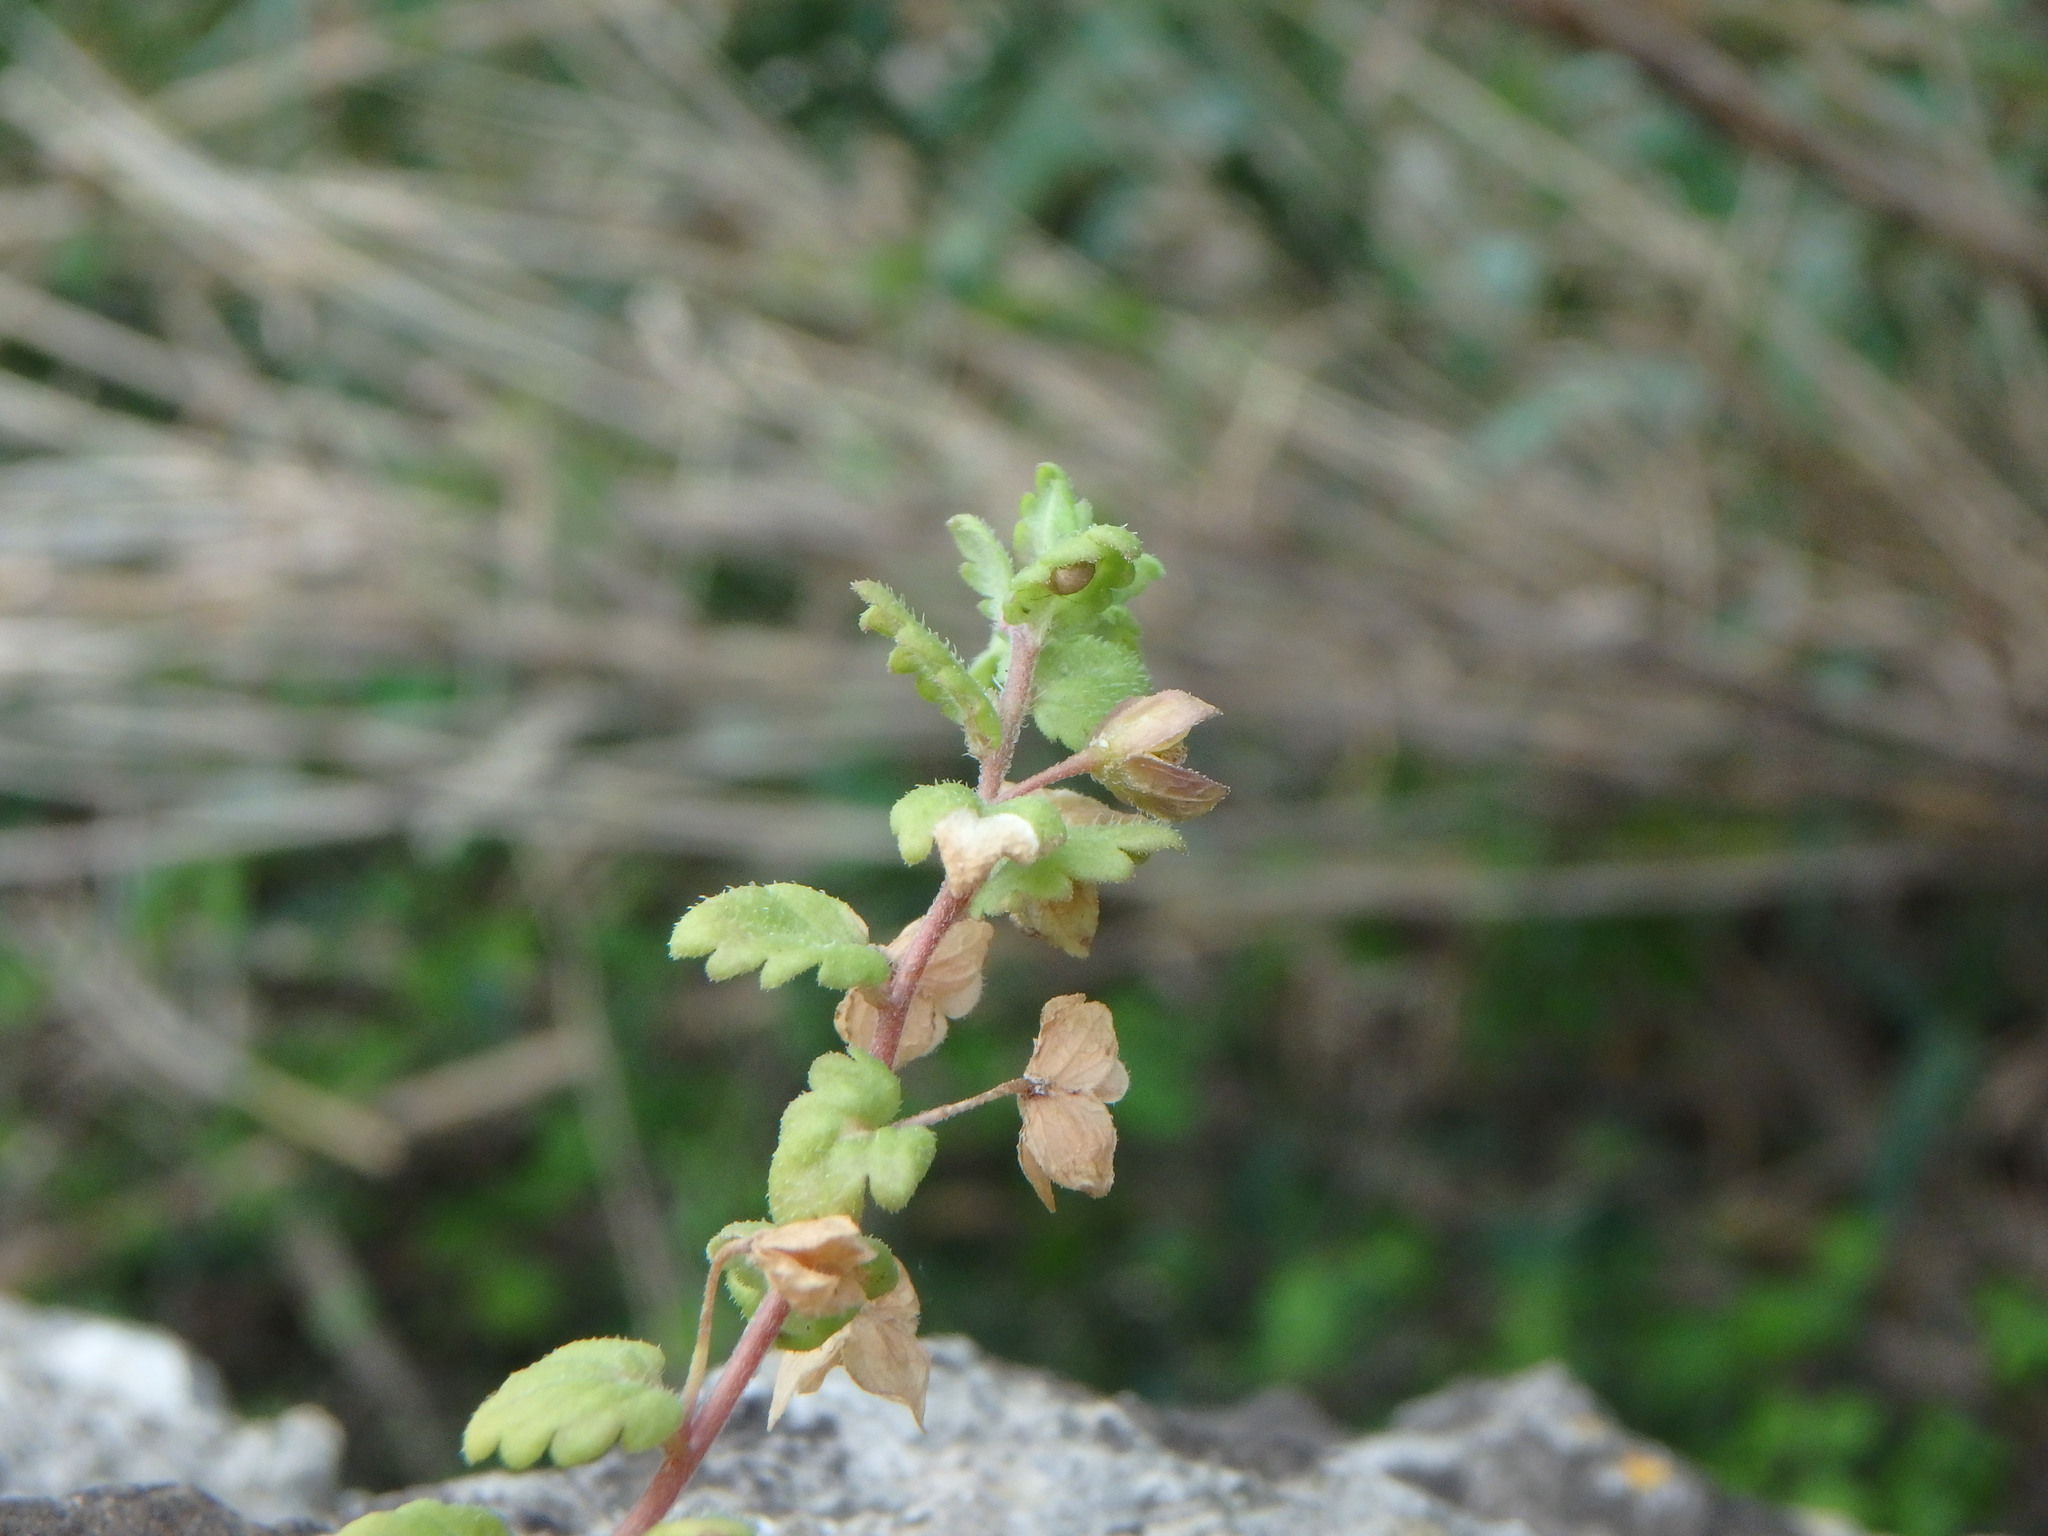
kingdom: Plantae
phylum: Tracheophyta
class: Magnoliopsida
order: Lamiales
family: Plantaginaceae
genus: Veronica
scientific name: Veronica arvensis
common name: Corn speedwell
